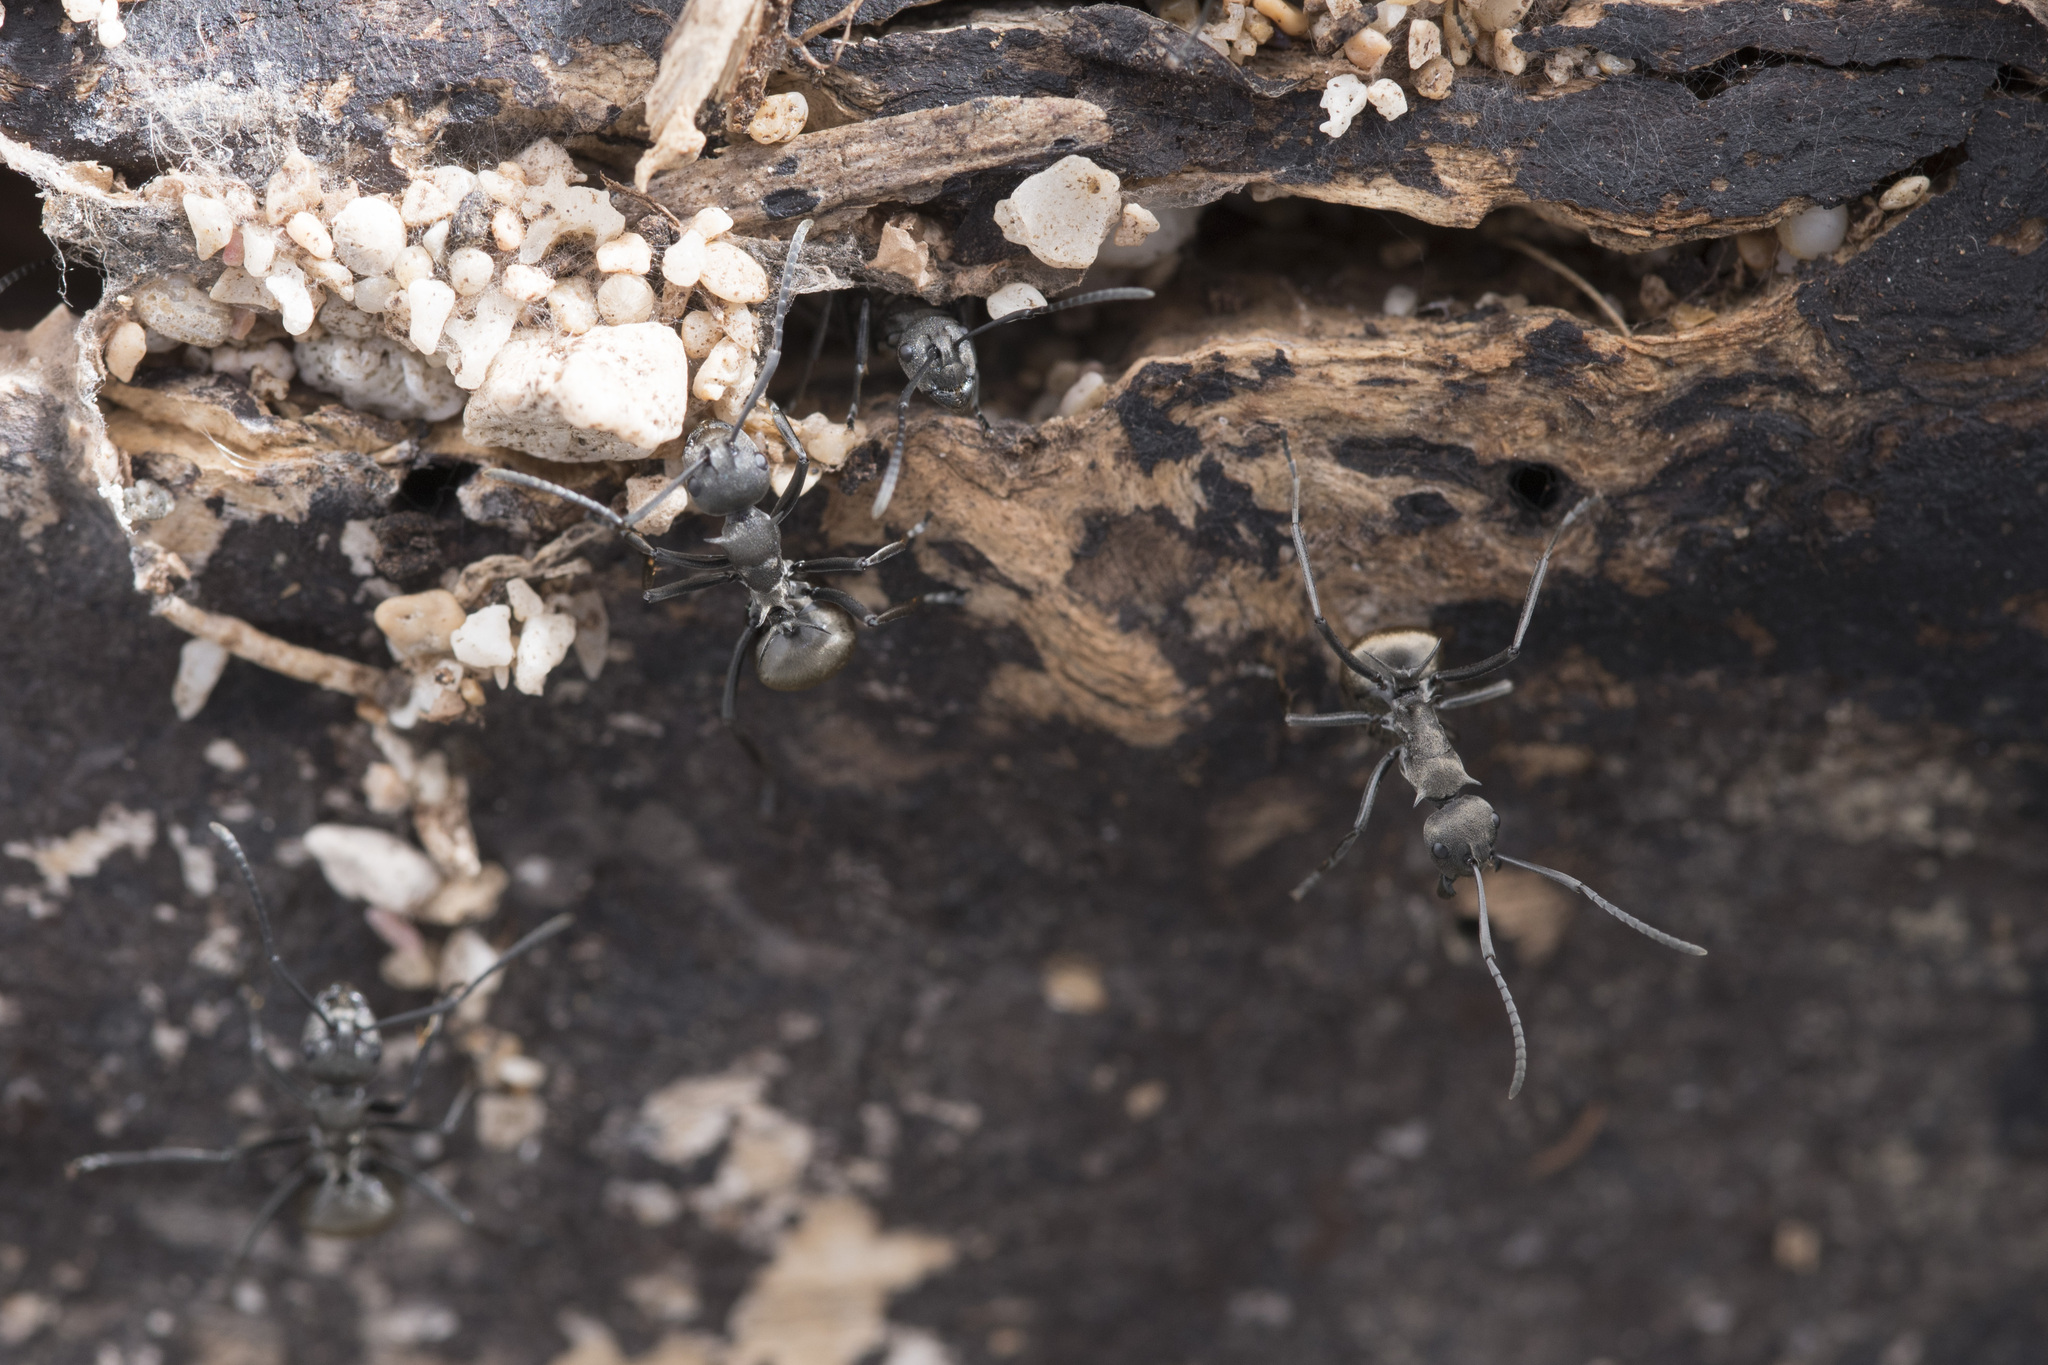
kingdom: Animalia
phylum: Arthropoda
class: Insecta
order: Hymenoptera
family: Formicidae
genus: Polyrhachis
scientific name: Polyrhachis dives
